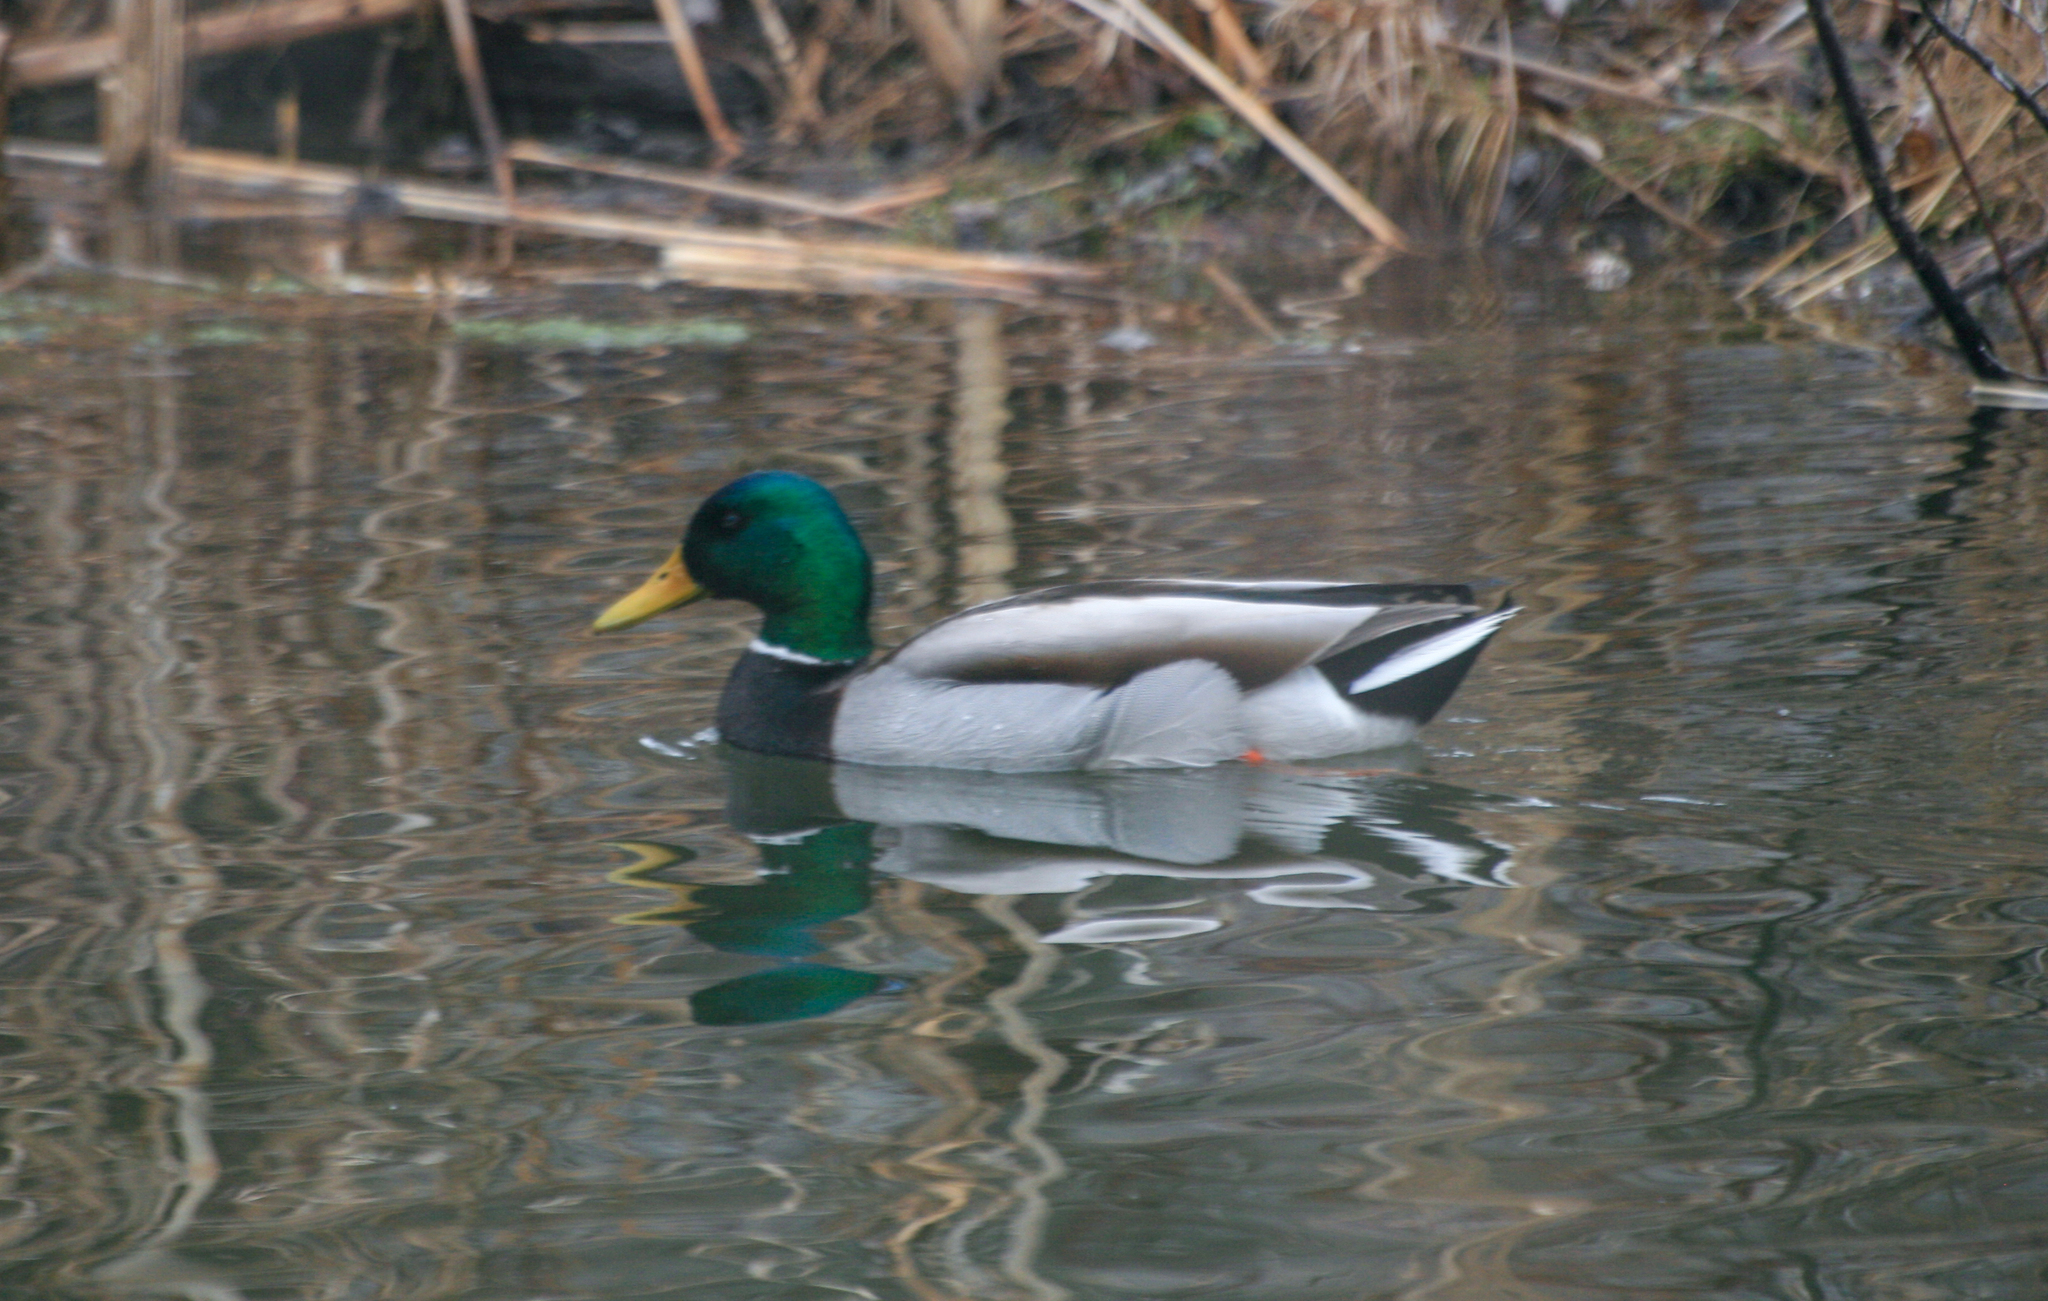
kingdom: Animalia
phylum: Chordata
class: Aves
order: Anseriformes
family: Anatidae
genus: Anas
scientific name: Anas platyrhynchos
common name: Mallard
